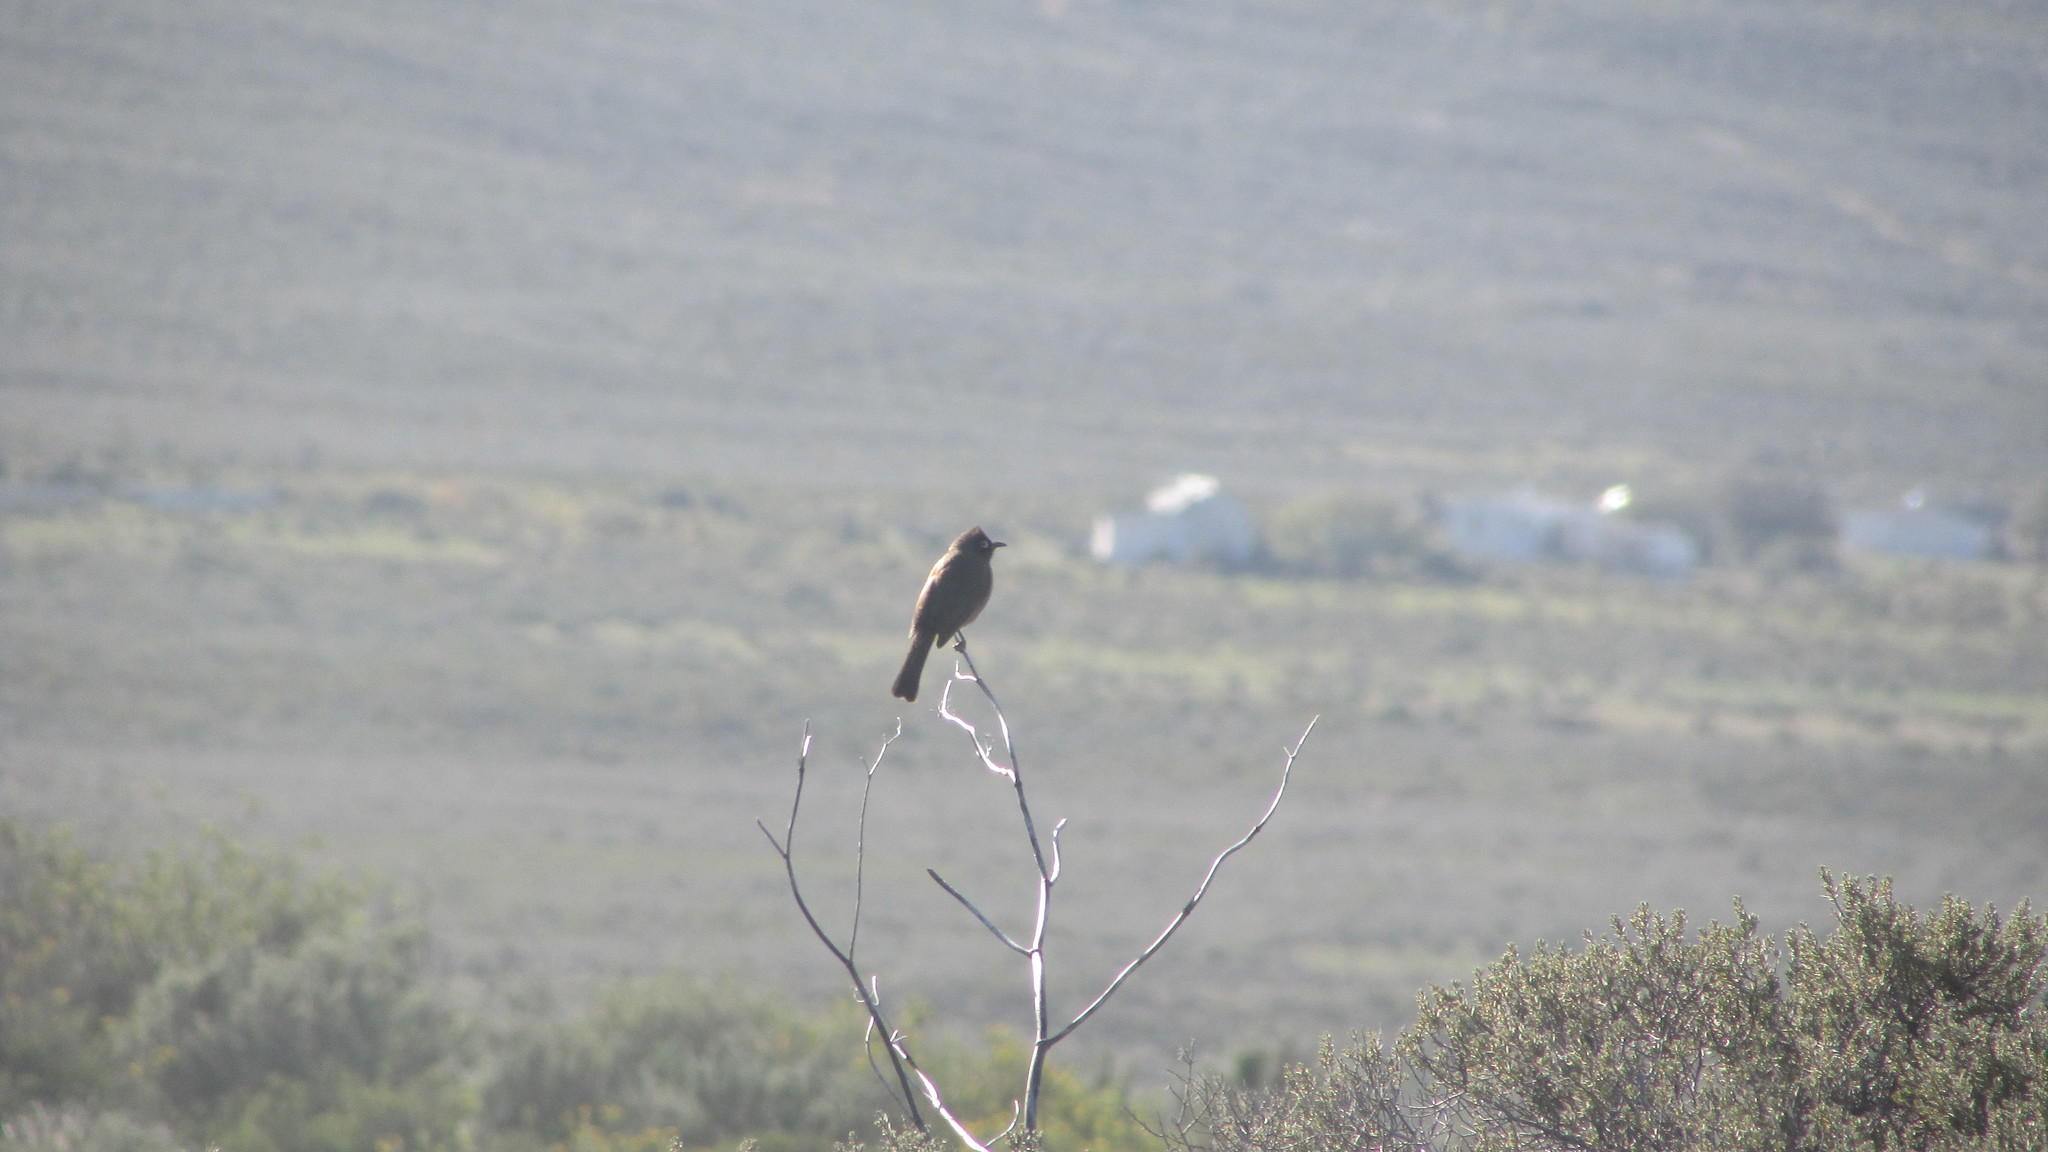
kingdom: Animalia
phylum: Chordata
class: Aves
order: Passeriformes
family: Pycnonotidae
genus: Pycnonotus
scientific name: Pycnonotus capensis
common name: Cape bulbul
